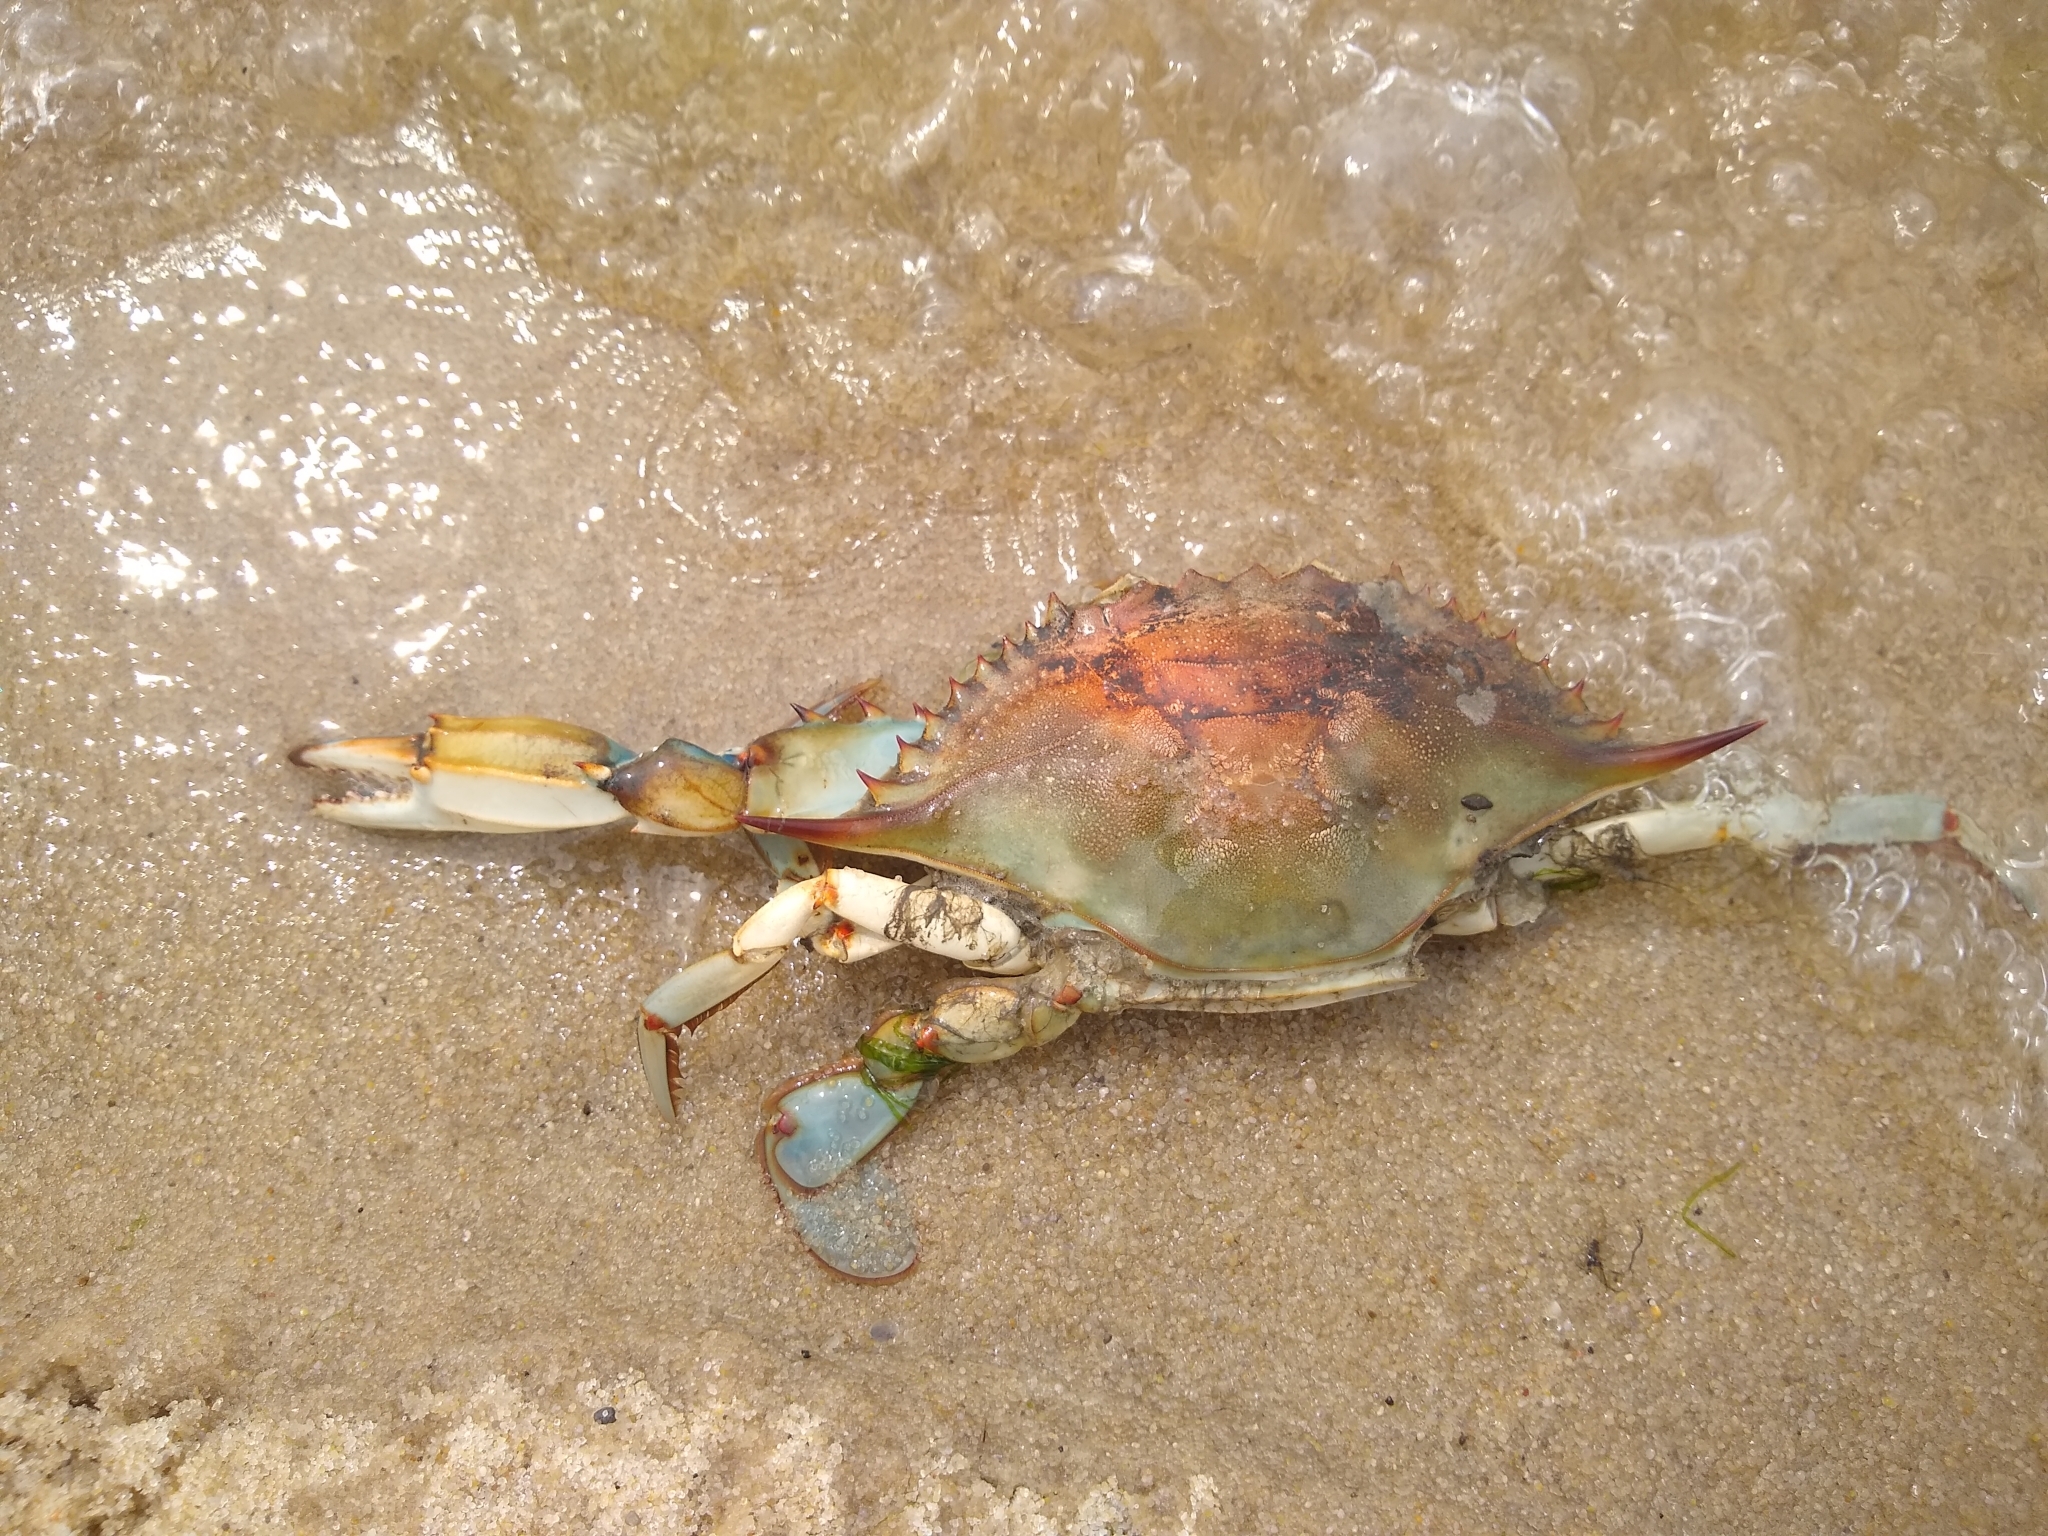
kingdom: Animalia
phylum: Arthropoda
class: Malacostraca
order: Decapoda
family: Portunidae
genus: Callinectes
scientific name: Callinectes sapidus
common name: Blue crab
